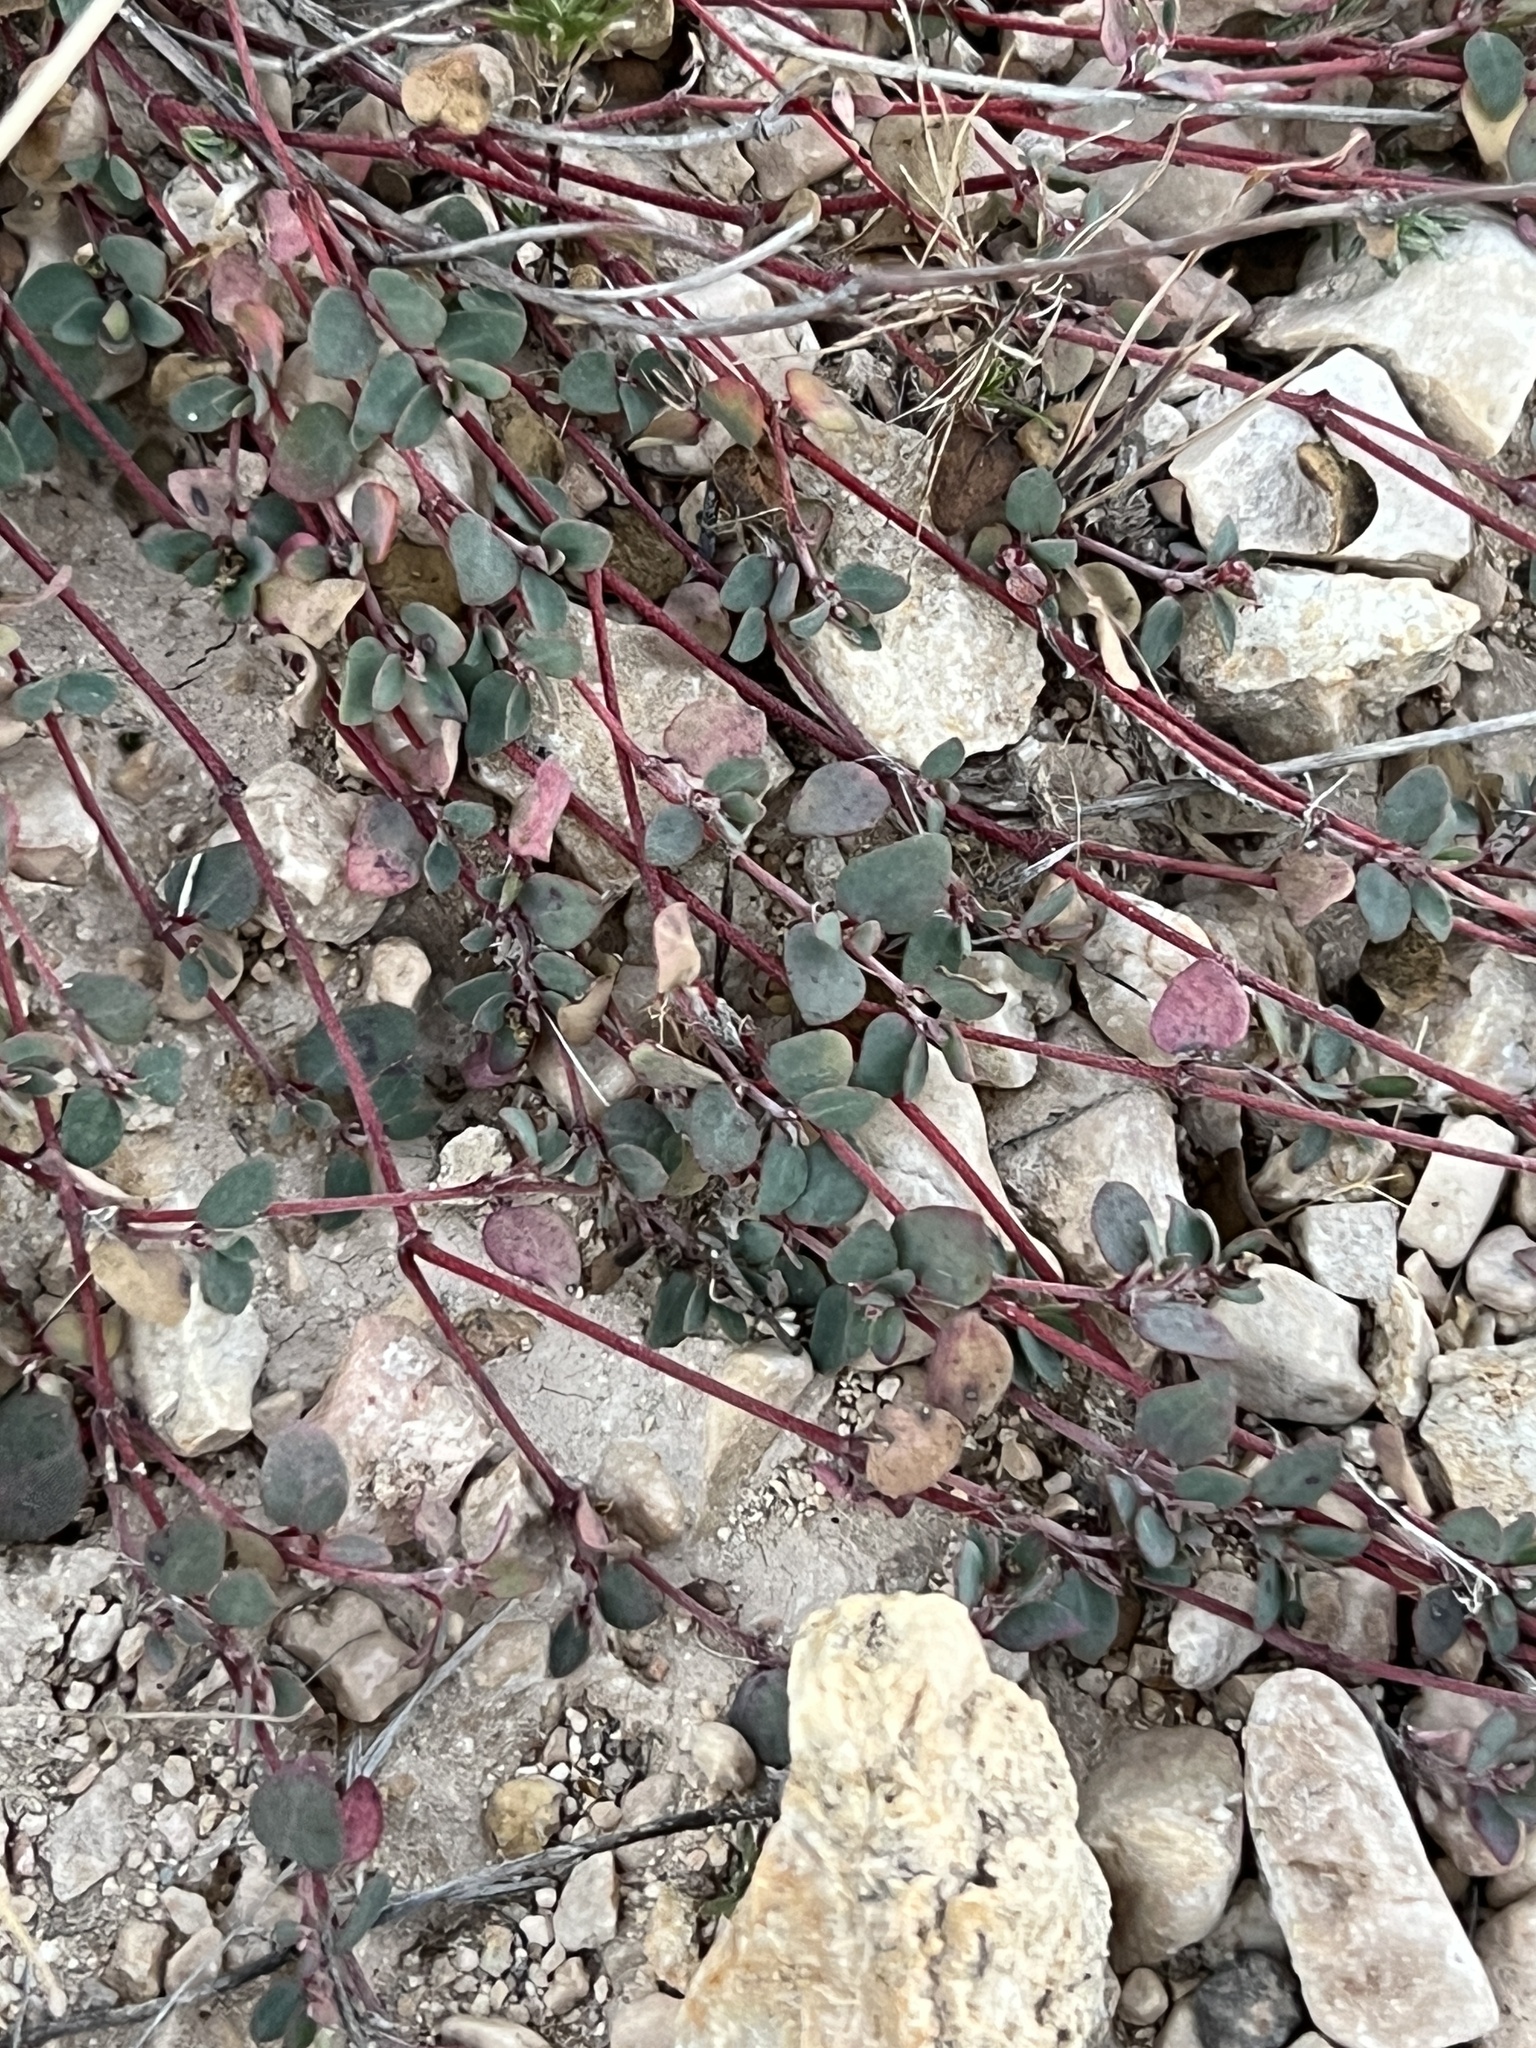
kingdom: Plantae
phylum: Tracheophyta
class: Magnoliopsida
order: Malpighiales
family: Euphorbiaceae
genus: Euphorbia
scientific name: Euphorbia cinerascens
